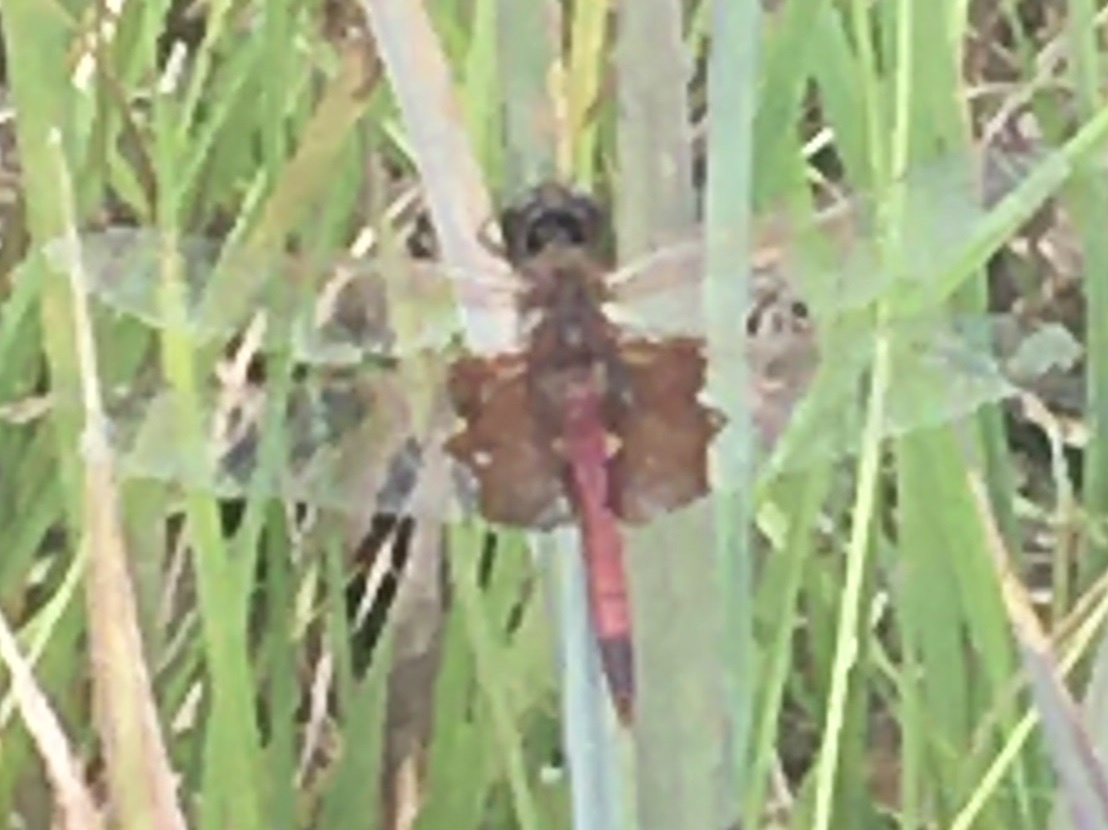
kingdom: Animalia
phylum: Arthropoda
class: Insecta
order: Odonata
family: Libellulidae
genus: Tramea
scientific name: Tramea carolina
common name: Carolina saddlebags
